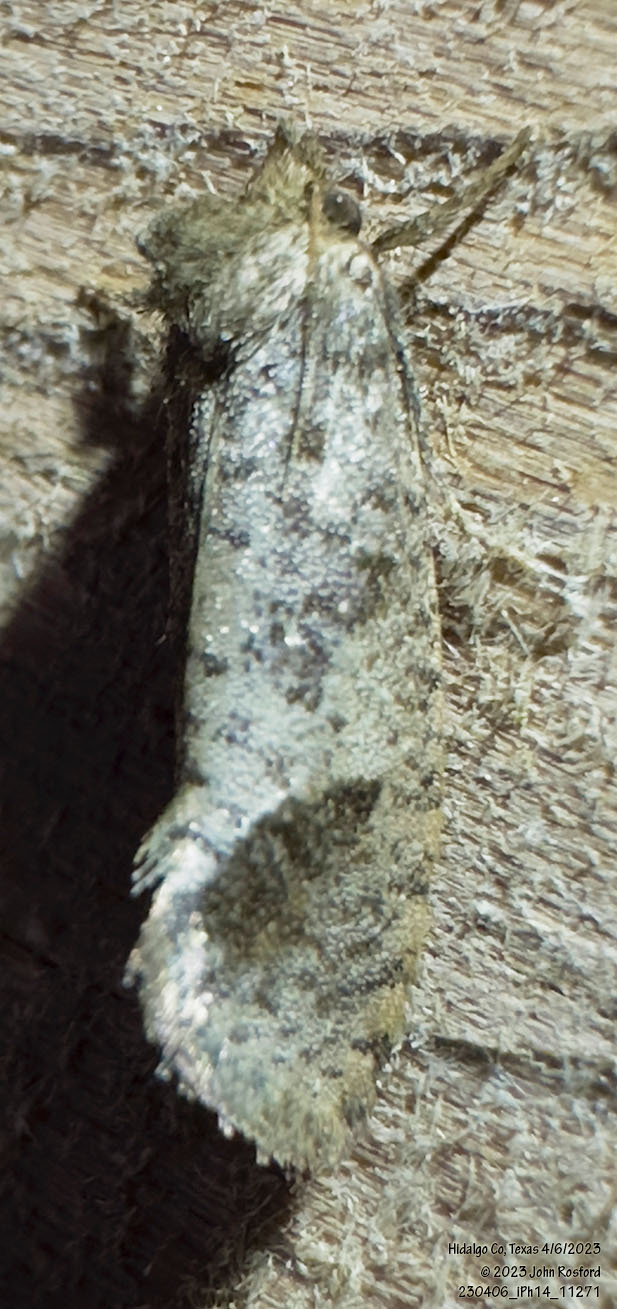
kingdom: Animalia
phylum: Arthropoda
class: Insecta
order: Lepidoptera
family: Tineidae
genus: Acrolophus
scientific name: Acrolophus texanella
